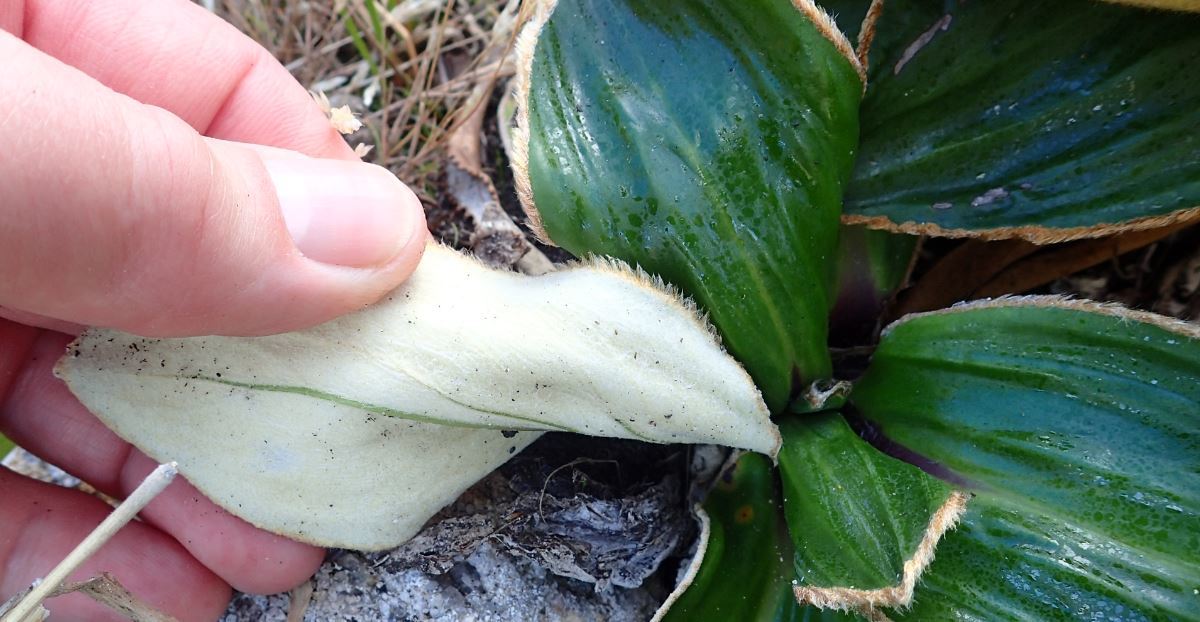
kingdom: Plantae
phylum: Tracheophyta
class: Magnoliopsida
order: Asterales
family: Asteraceae
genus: Celmisia
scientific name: Celmisia verbascifolia
